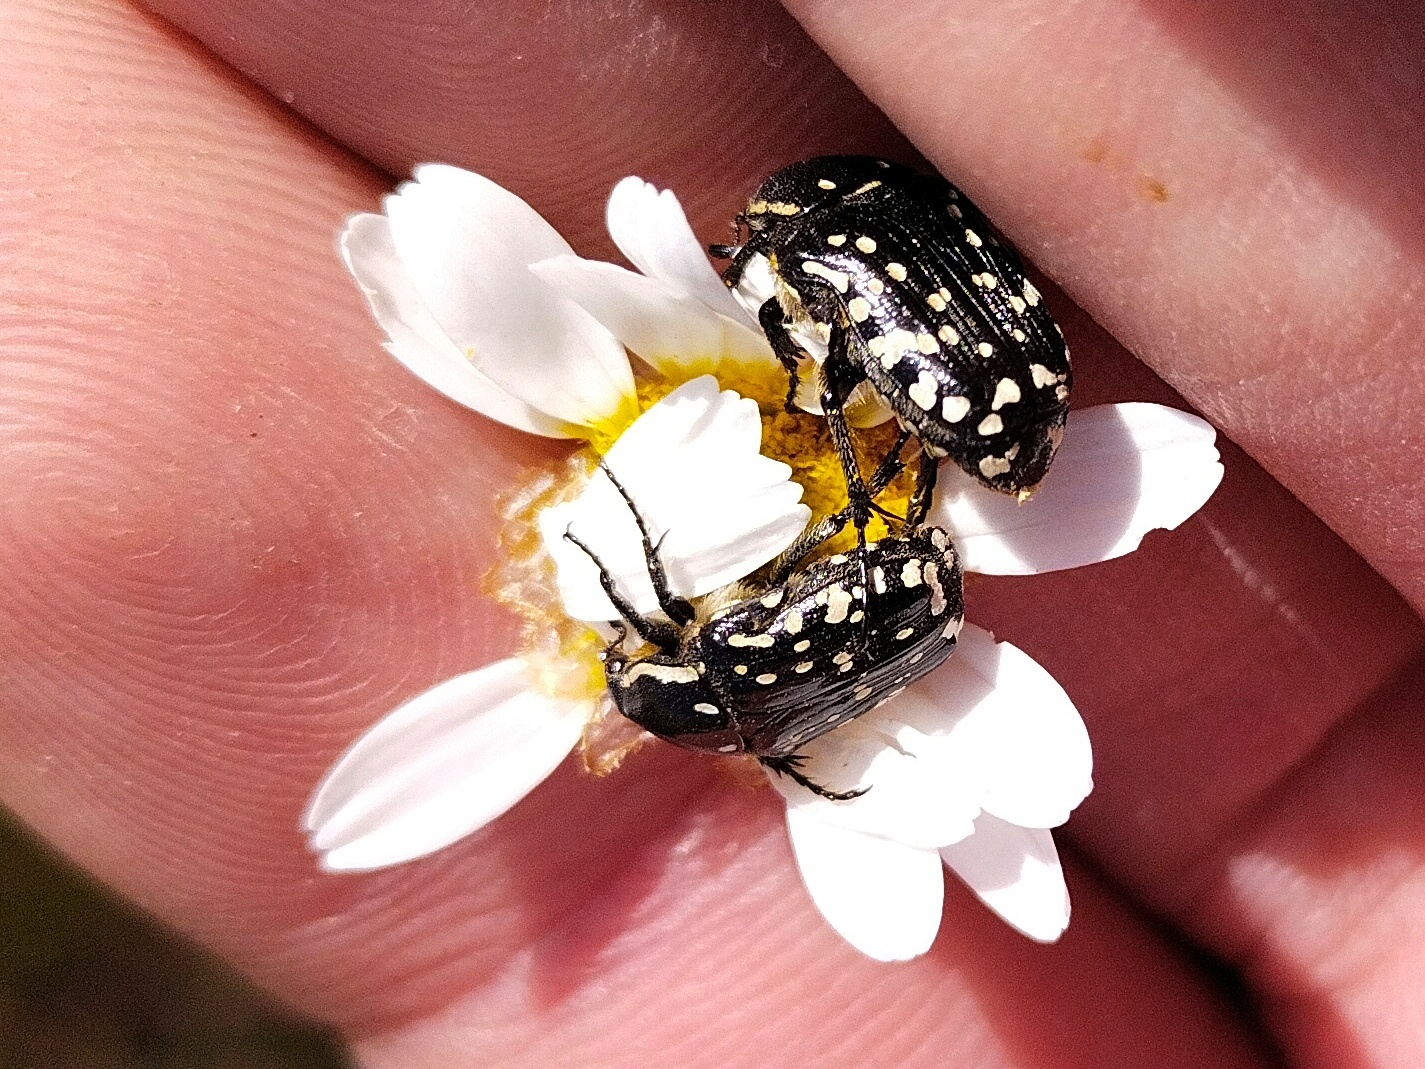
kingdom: Animalia
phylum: Arthropoda
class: Insecta
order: Coleoptera
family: Scarabaeidae
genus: Oxythyrea
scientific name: Oxythyrea cinctella
